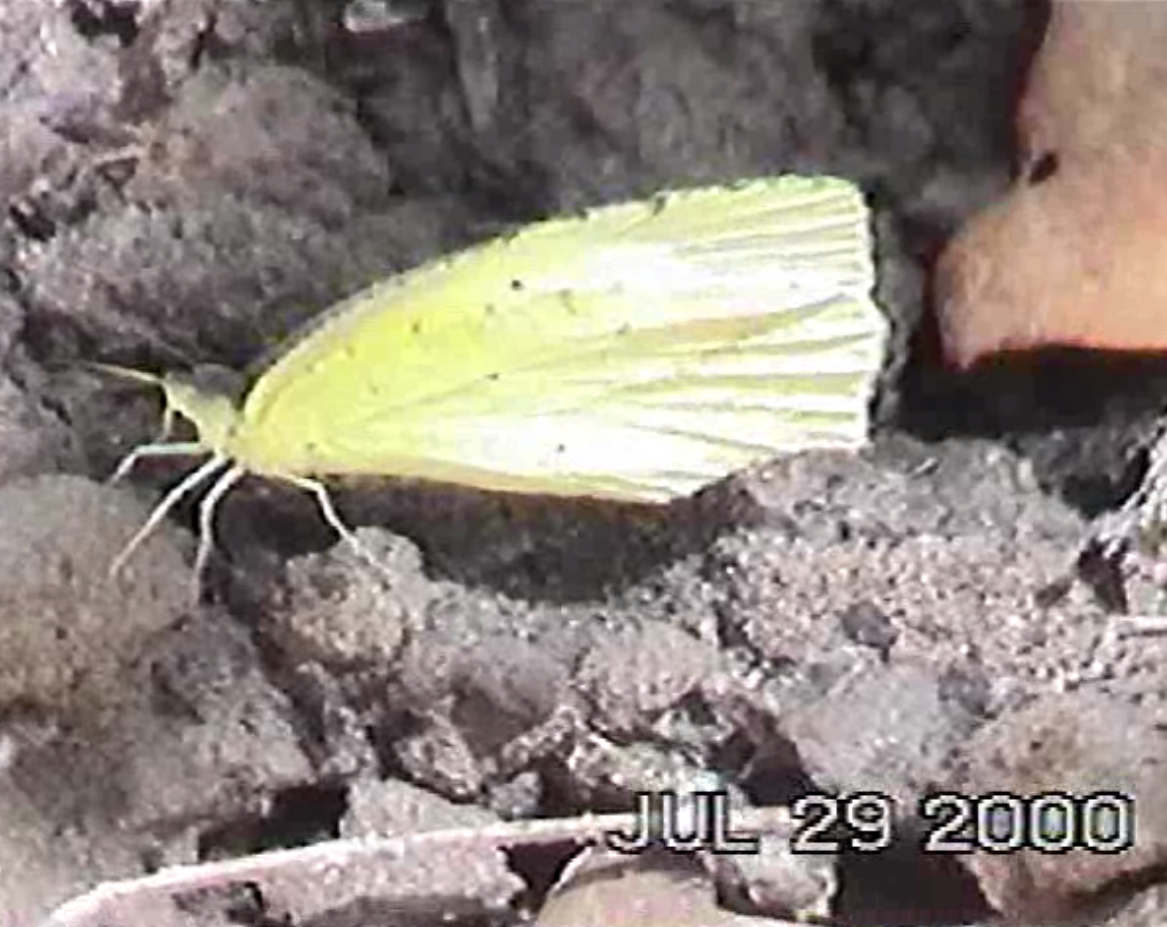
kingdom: Animalia
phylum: Arthropoda
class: Insecta
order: Lepidoptera
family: Pieridae
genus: Abaeis
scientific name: Abaeis mexicana
